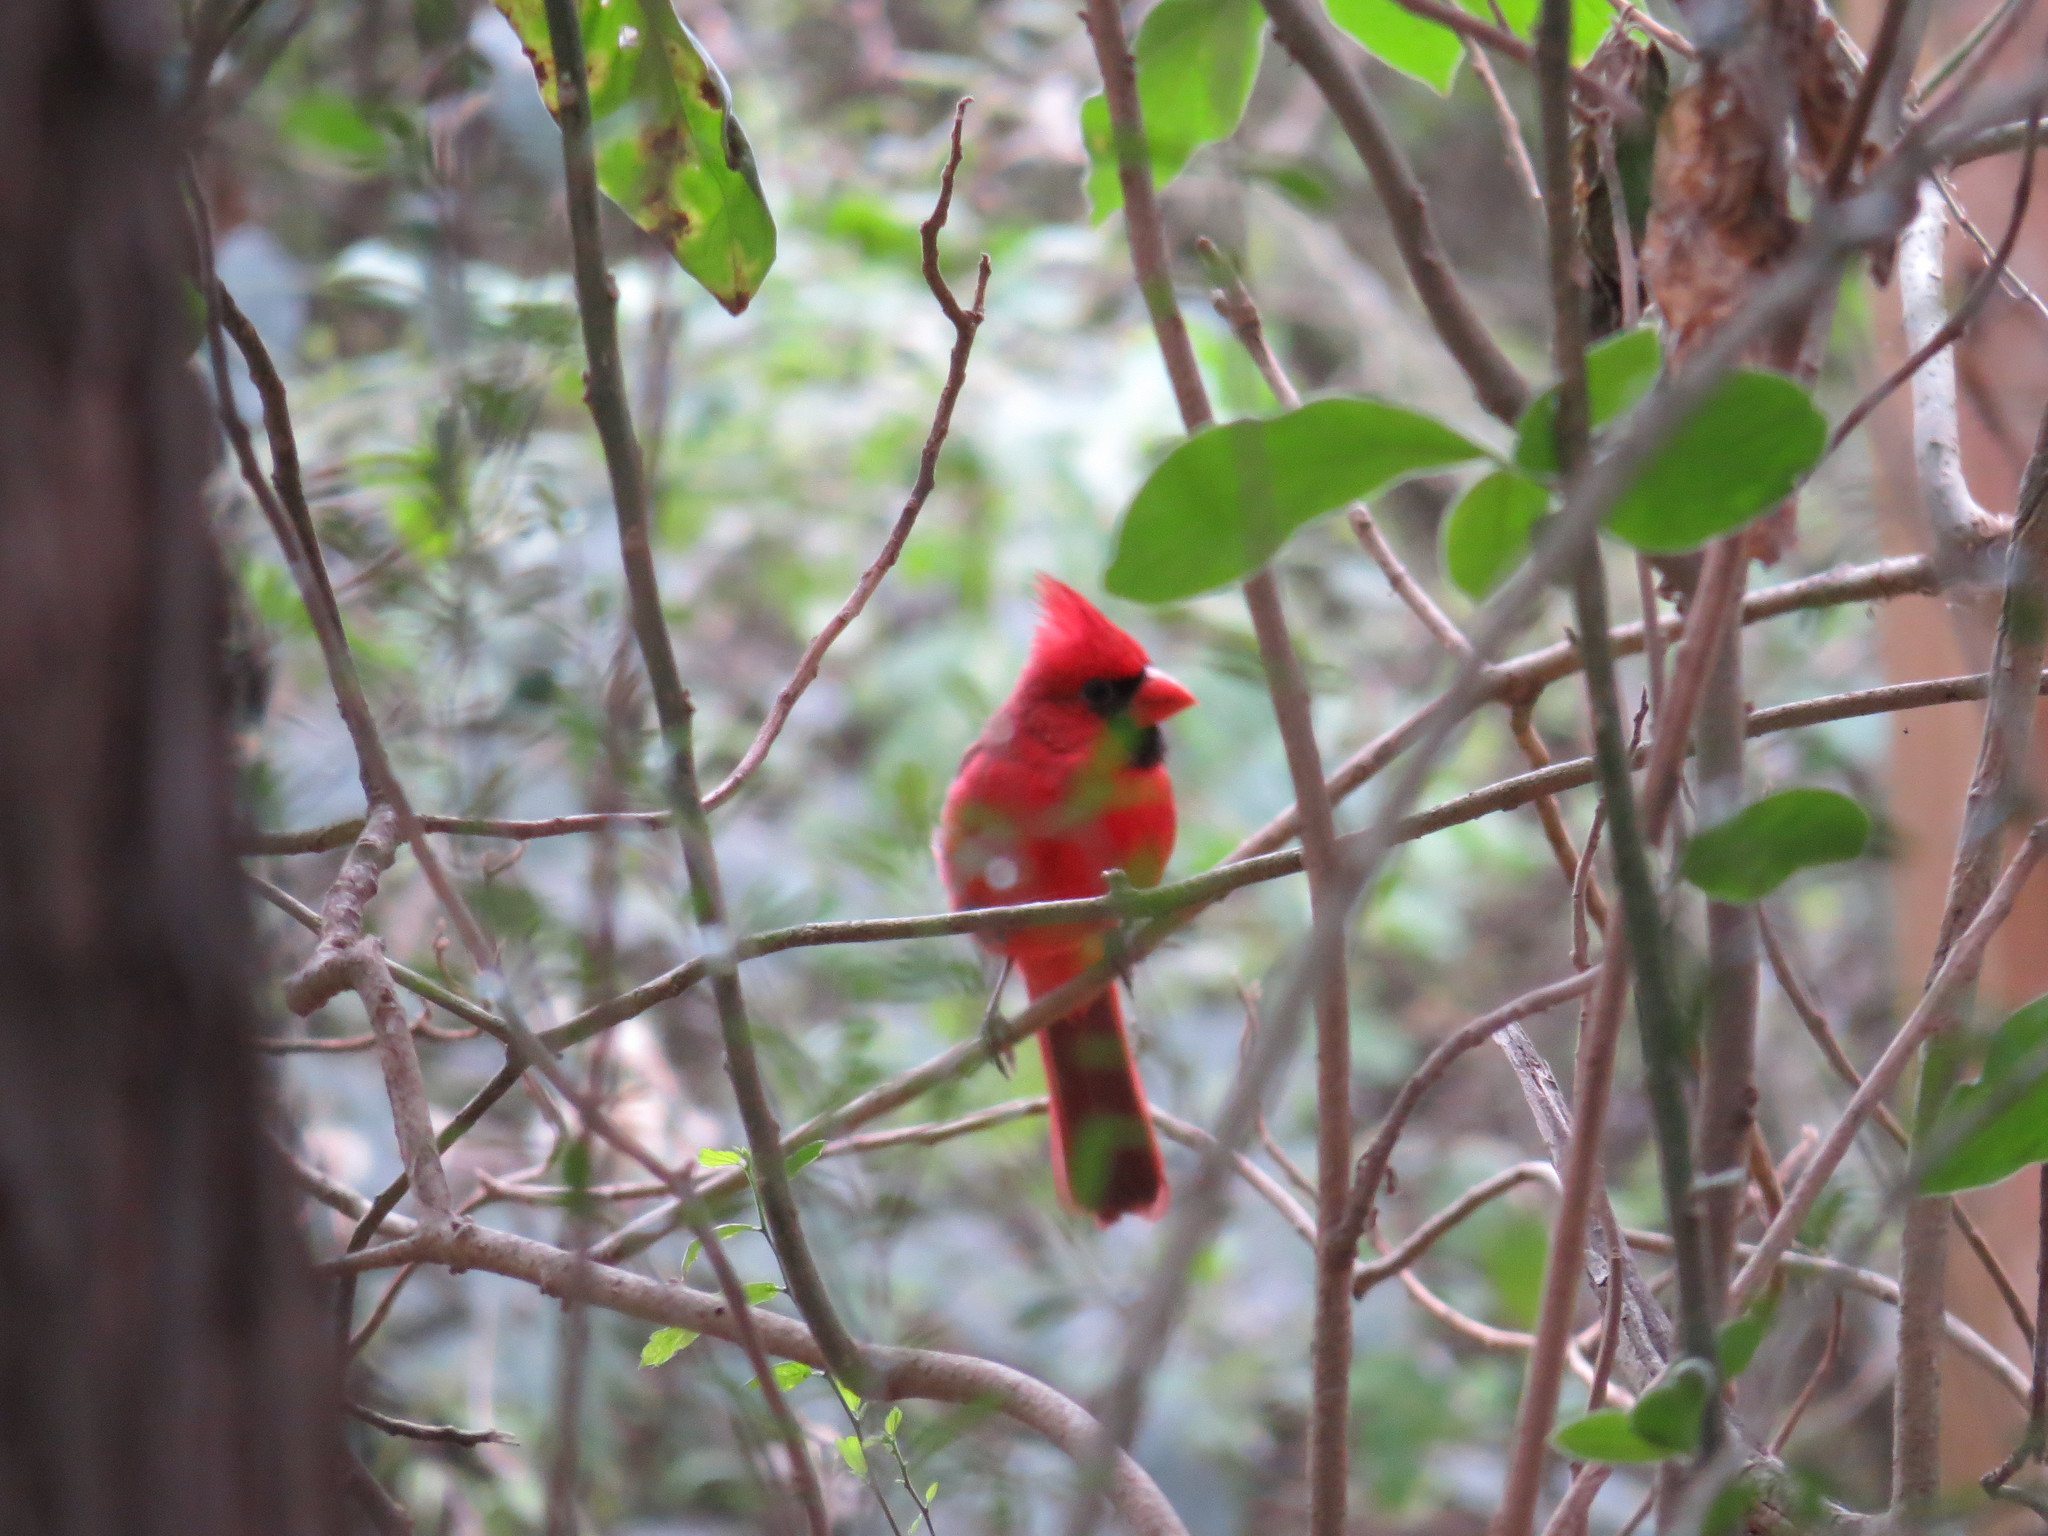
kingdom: Animalia
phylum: Chordata
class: Aves
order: Passeriformes
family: Cardinalidae
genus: Cardinalis
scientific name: Cardinalis cardinalis
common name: Northern cardinal
